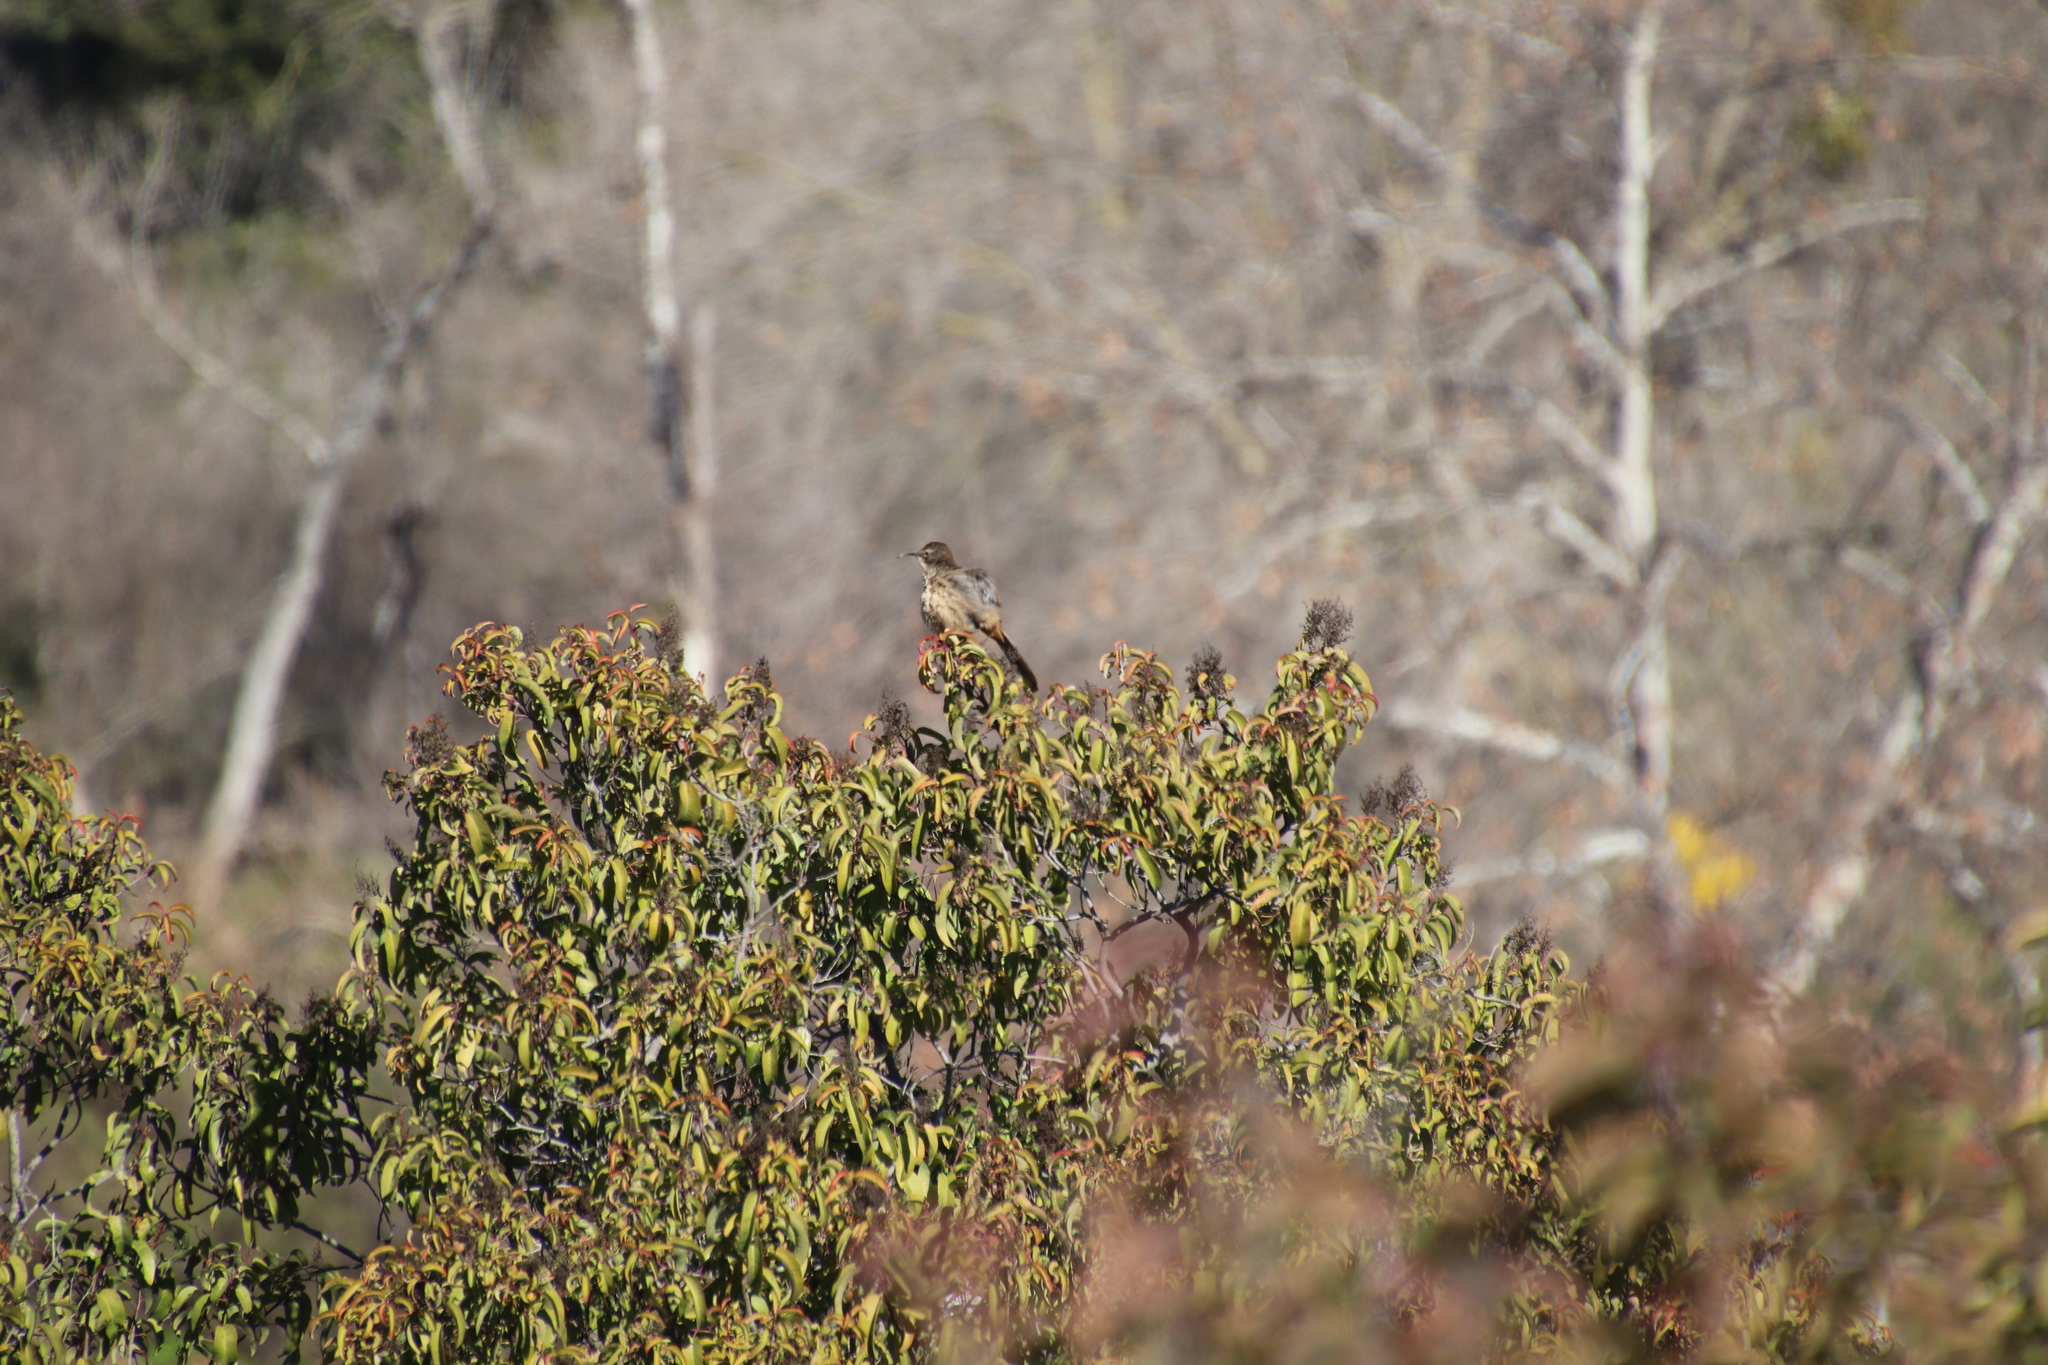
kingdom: Animalia
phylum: Chordata
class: Aves
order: Passeriformes
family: Mimidae
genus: Toxostoma
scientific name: Toxostoma redivivum
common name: California thrasher
